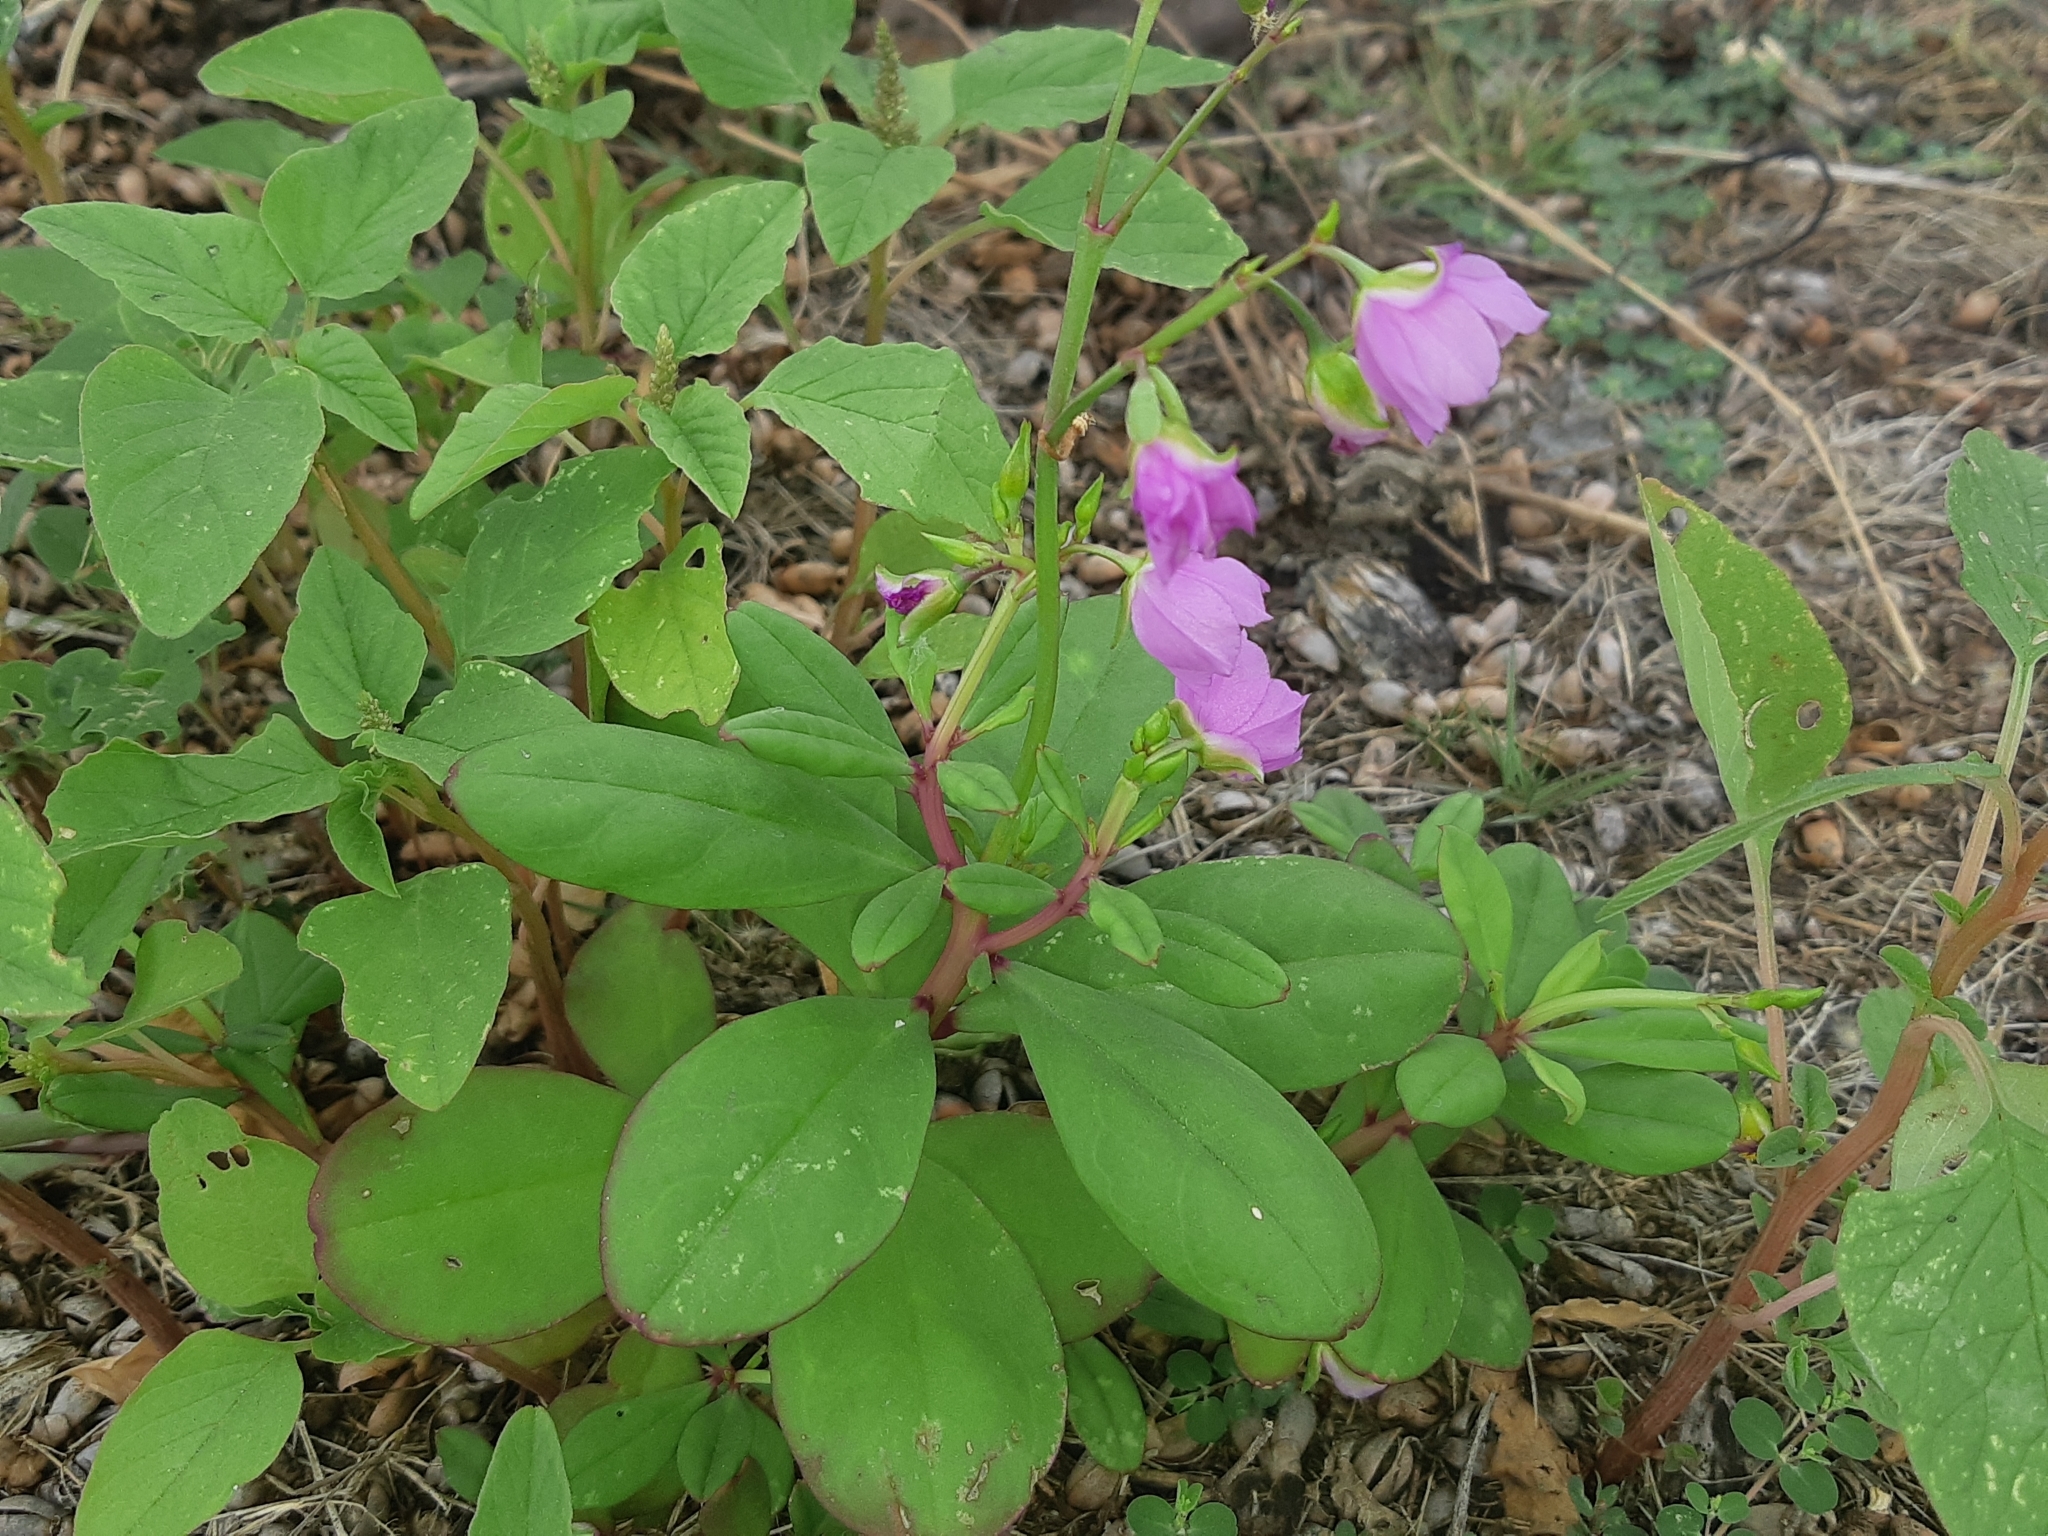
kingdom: Plantae
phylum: Tracheophyta
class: Magnoliopsida
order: Caryophyllales
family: Talinaceae
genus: Talinum
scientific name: Talinum fruticosum
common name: Verdolaga-francesa
